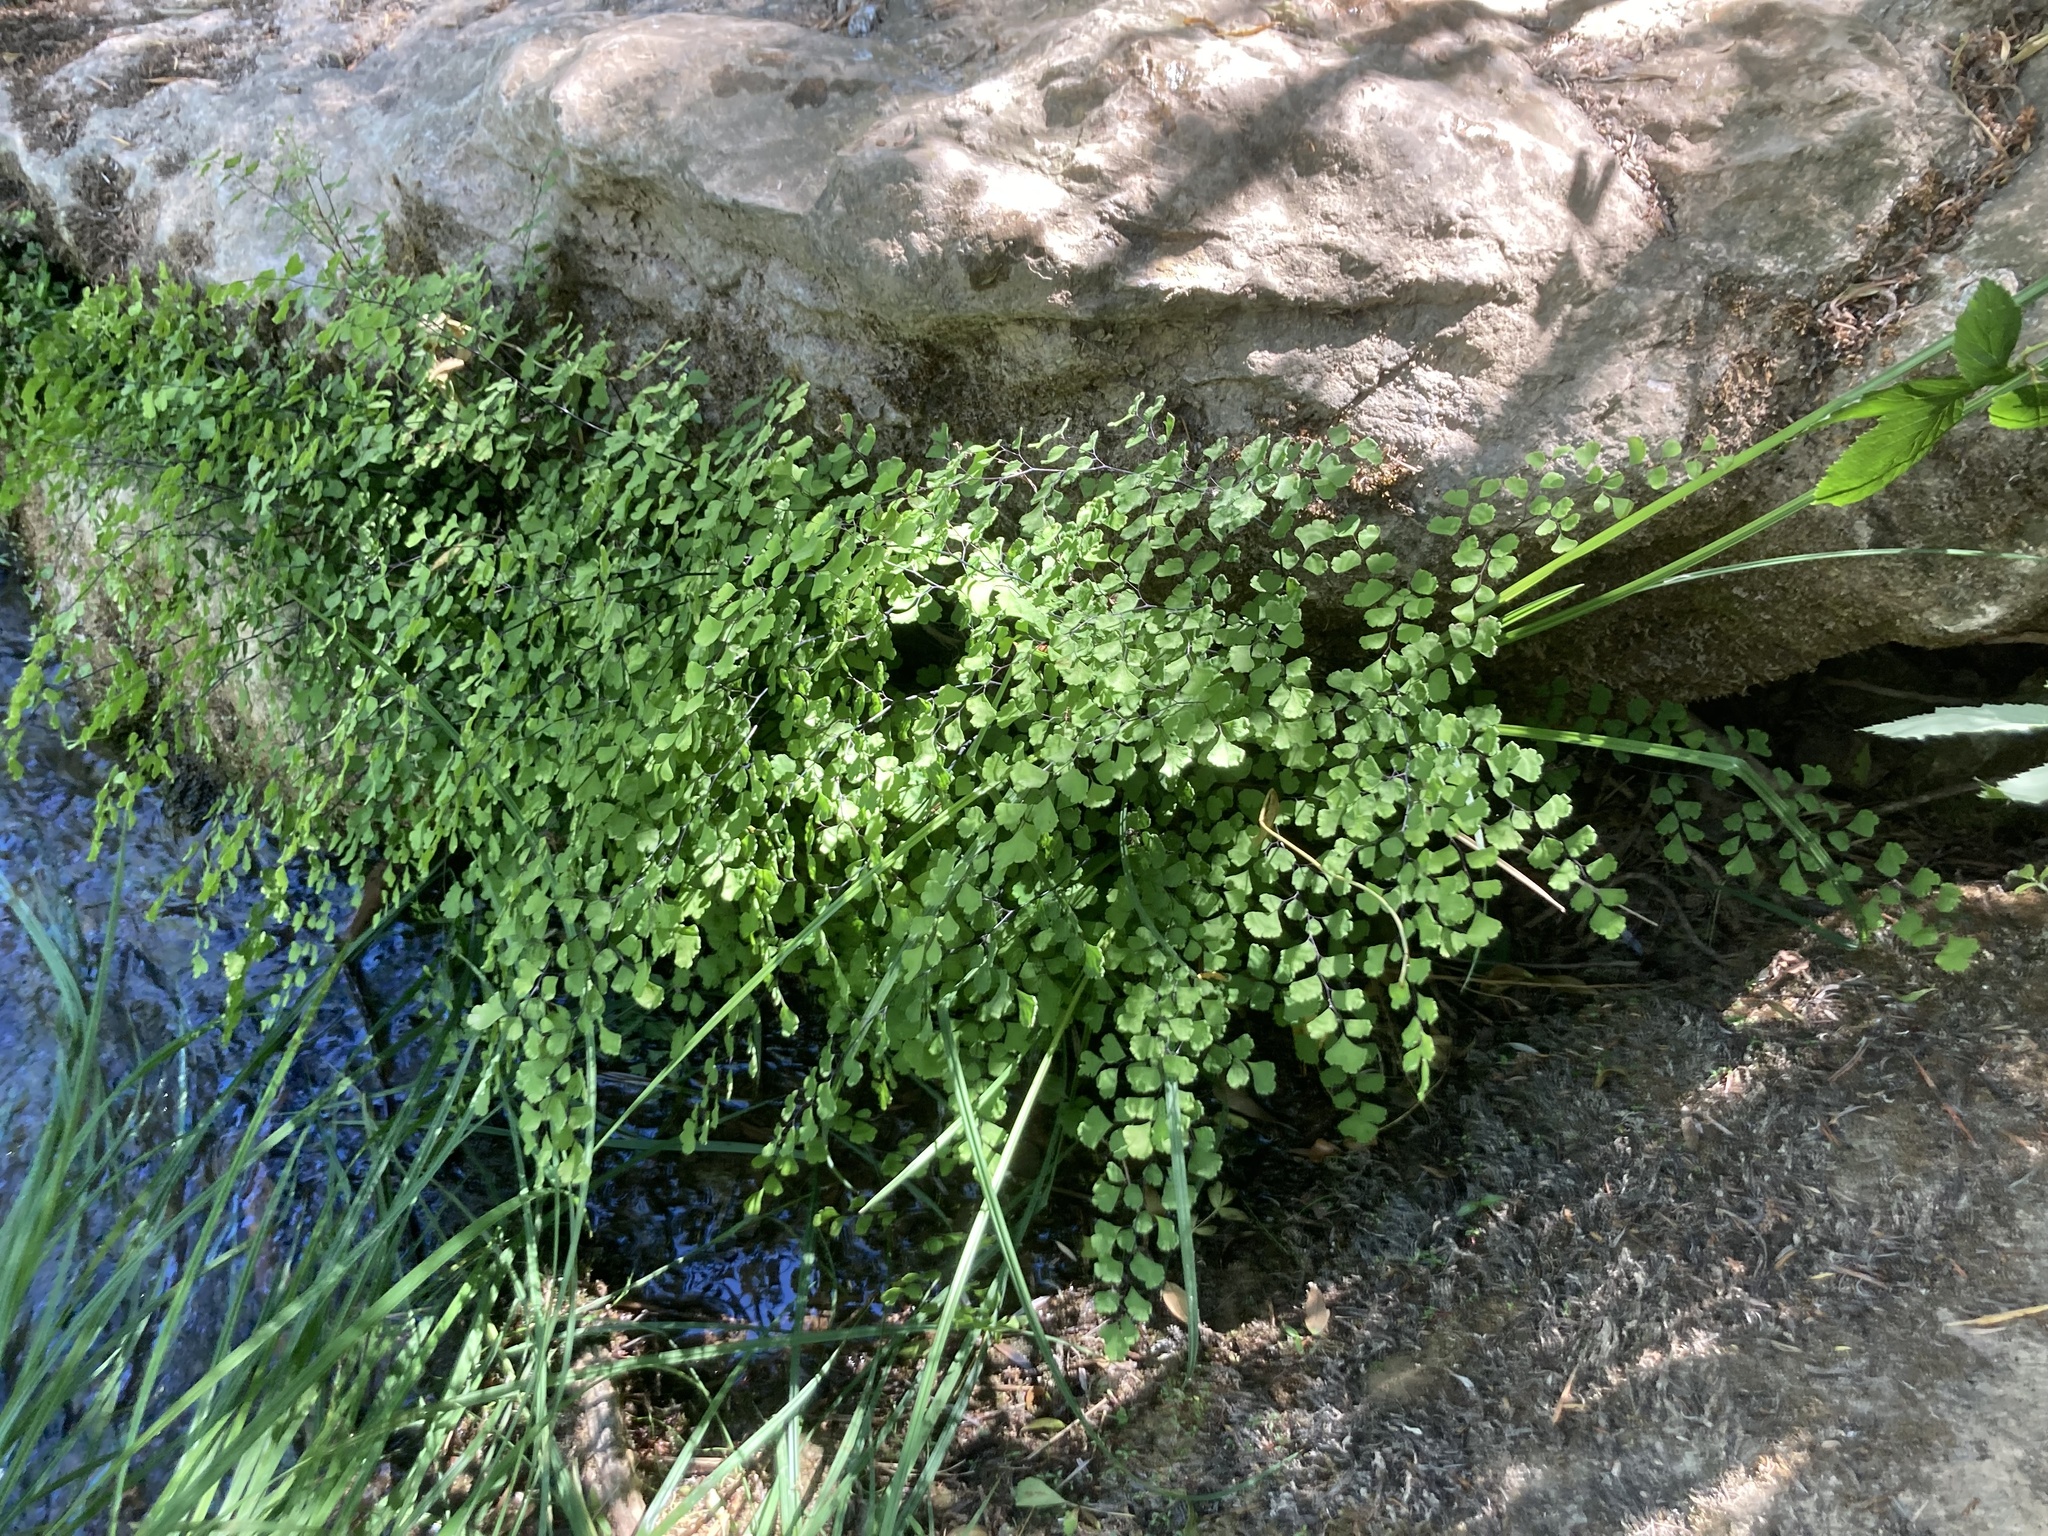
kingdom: Plantae
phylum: Tracheophyta
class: Polypodiopsida
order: Polypodiales
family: Pteridaceae
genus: Adiantum
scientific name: Adiantum capillus-veneris
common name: Maidenhair fern
